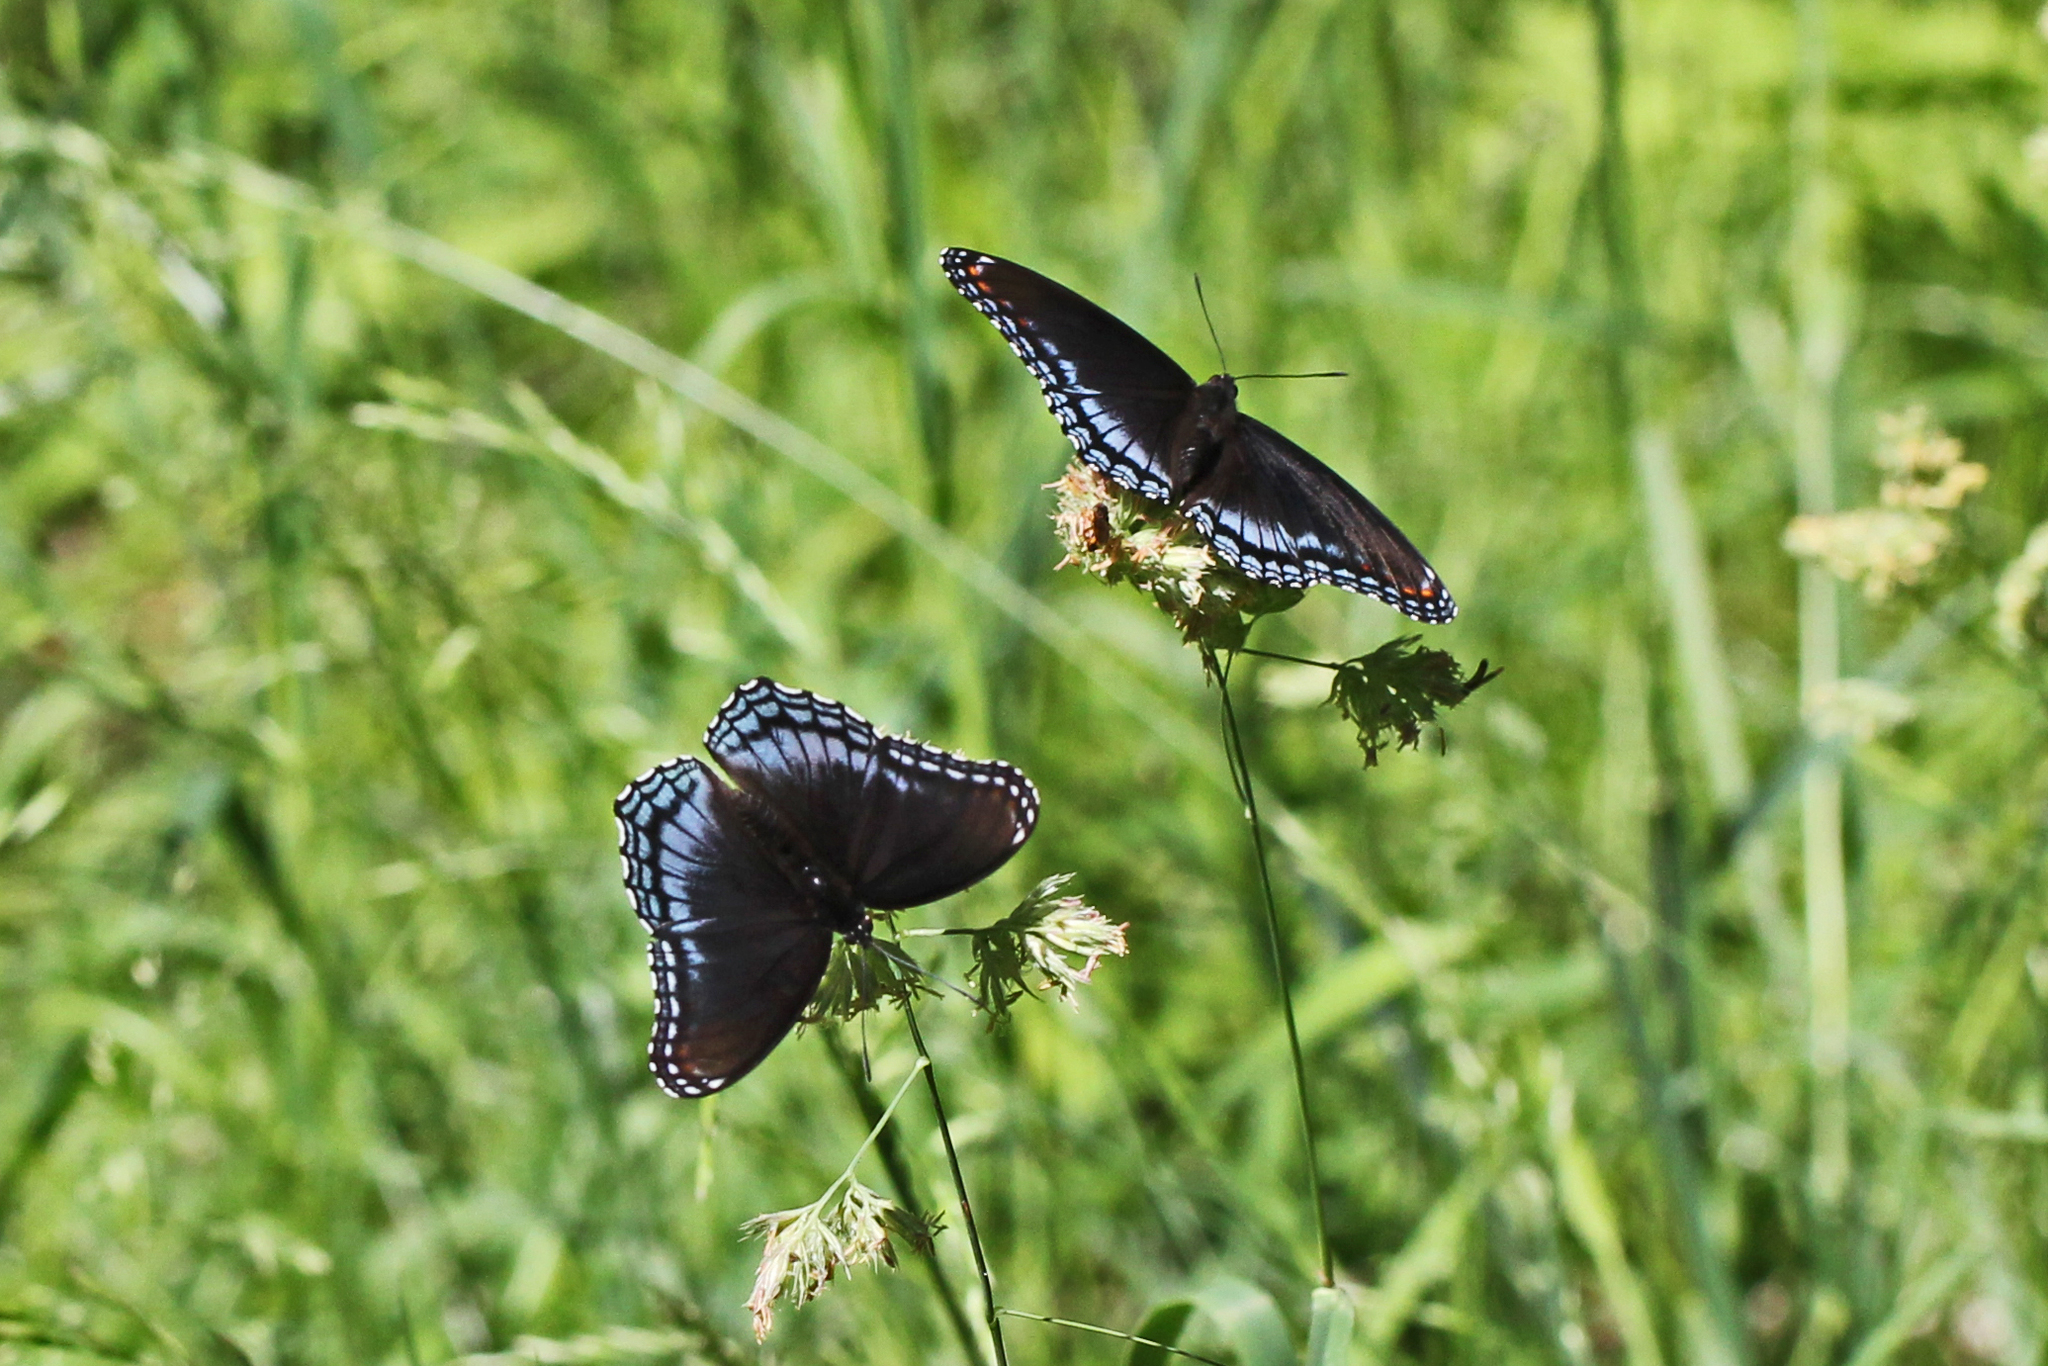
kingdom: Animalia
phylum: Arthropoda
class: Insecta
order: Lepidoptera
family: Nymphalidae
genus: Limenitis
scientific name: Limenitis astyanax
